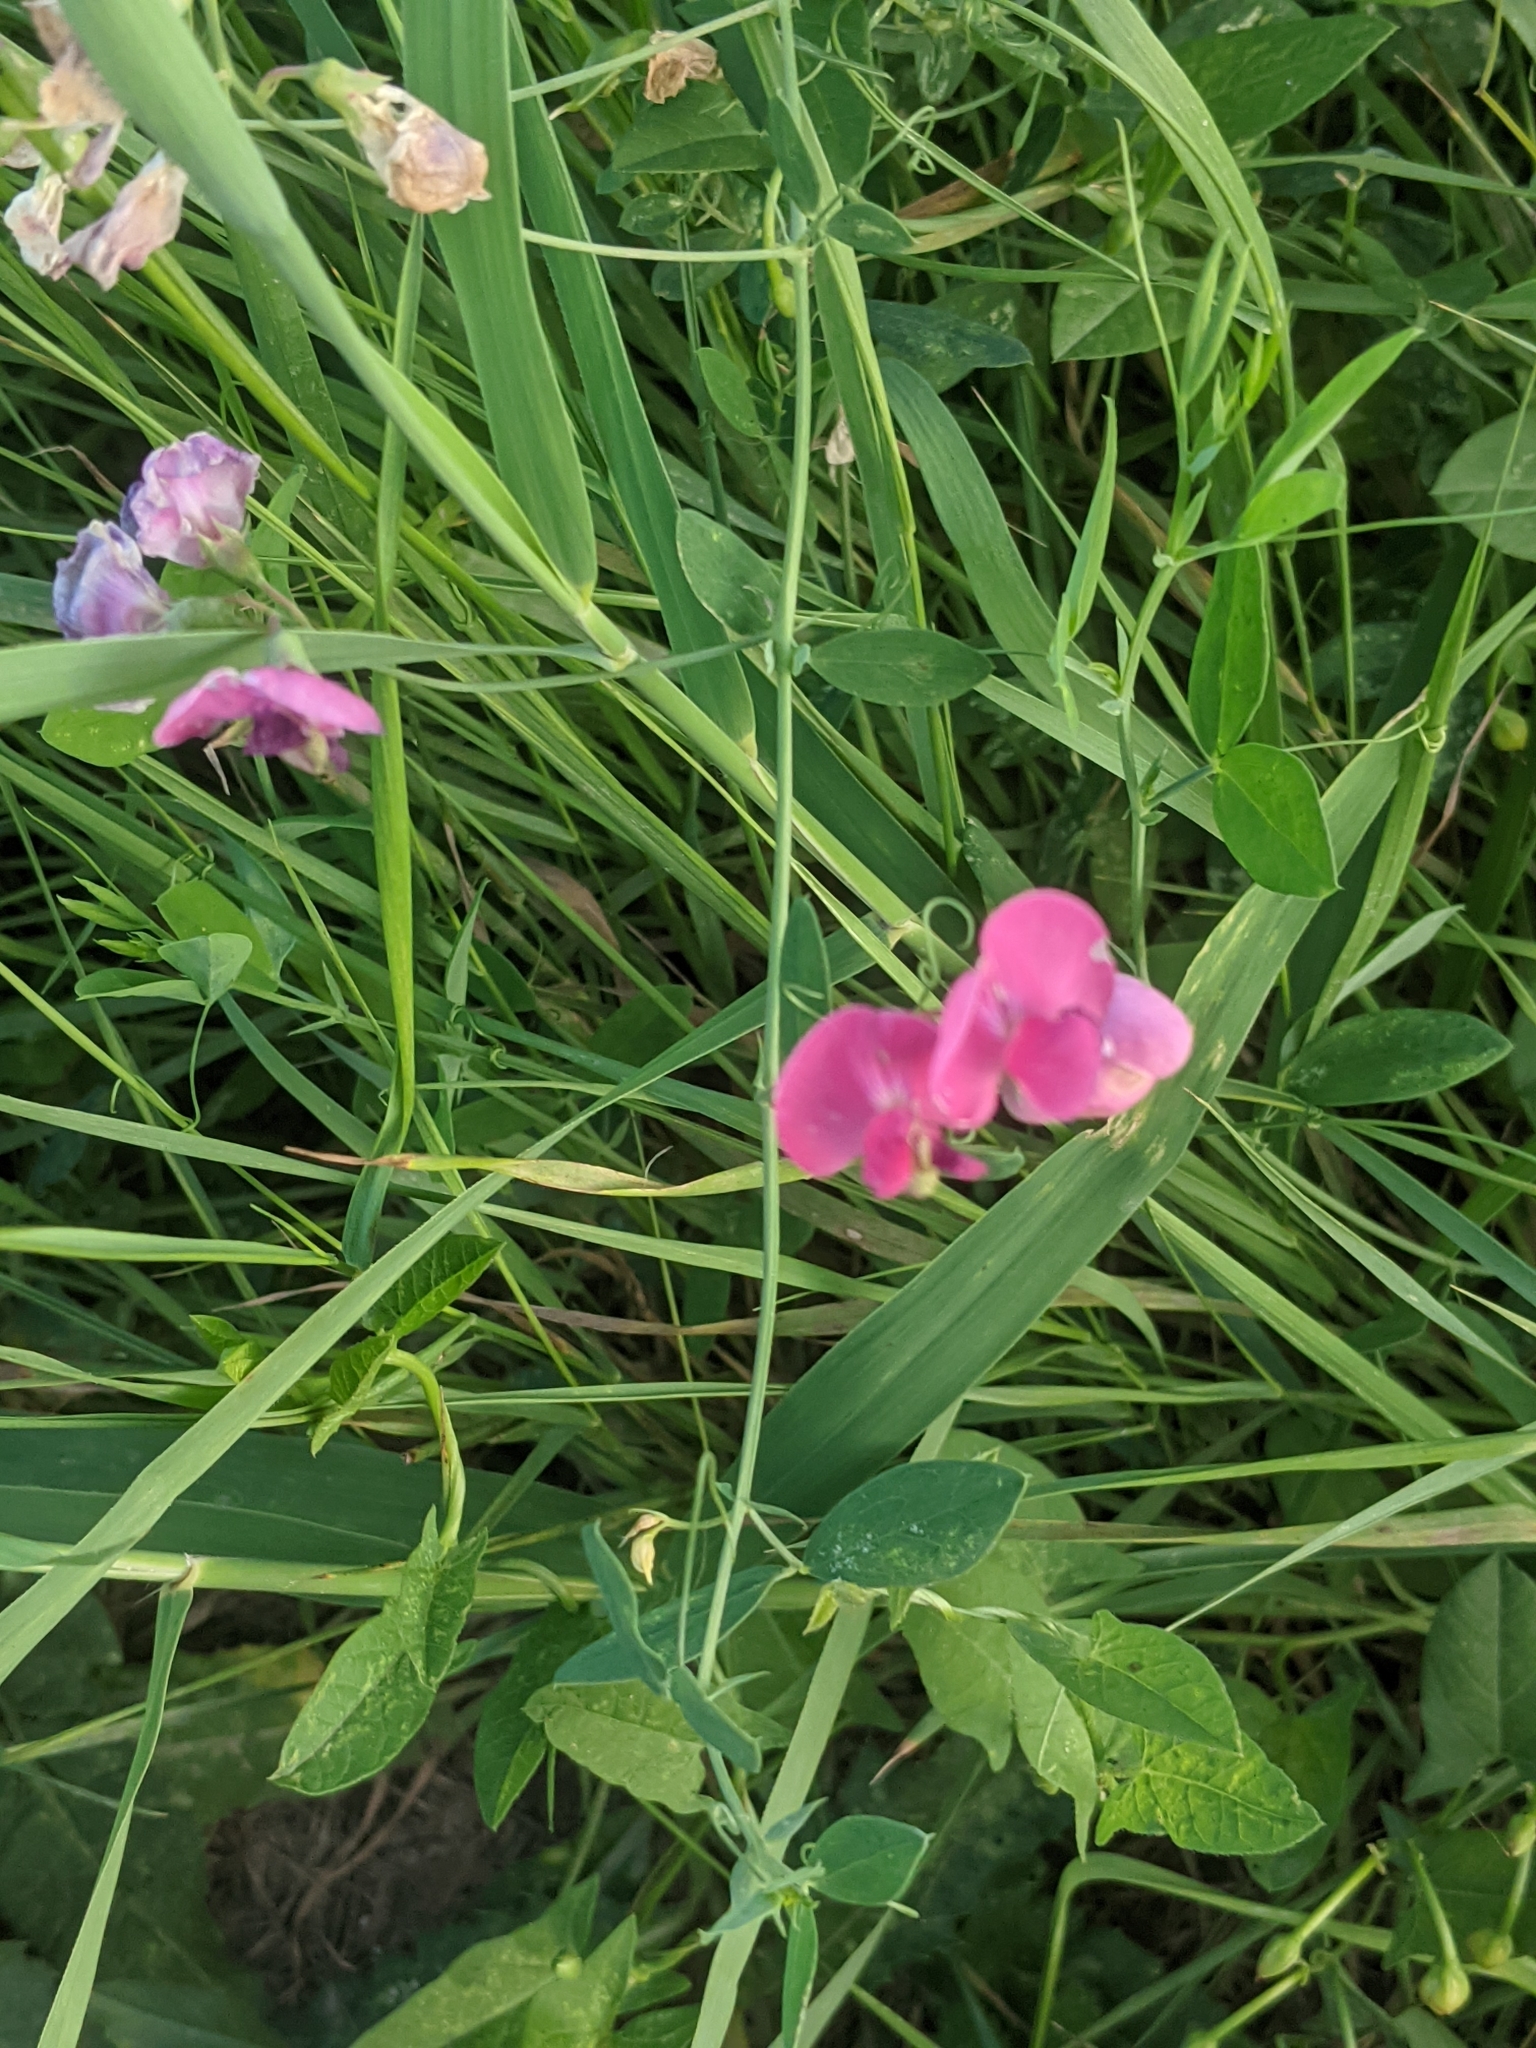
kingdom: Plantae
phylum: Tracheophyta
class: Magnoliopsida
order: Fabales
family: Fabaceae
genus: Lathyrus
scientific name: Lathyrus tuberosus
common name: Tuberous pea
